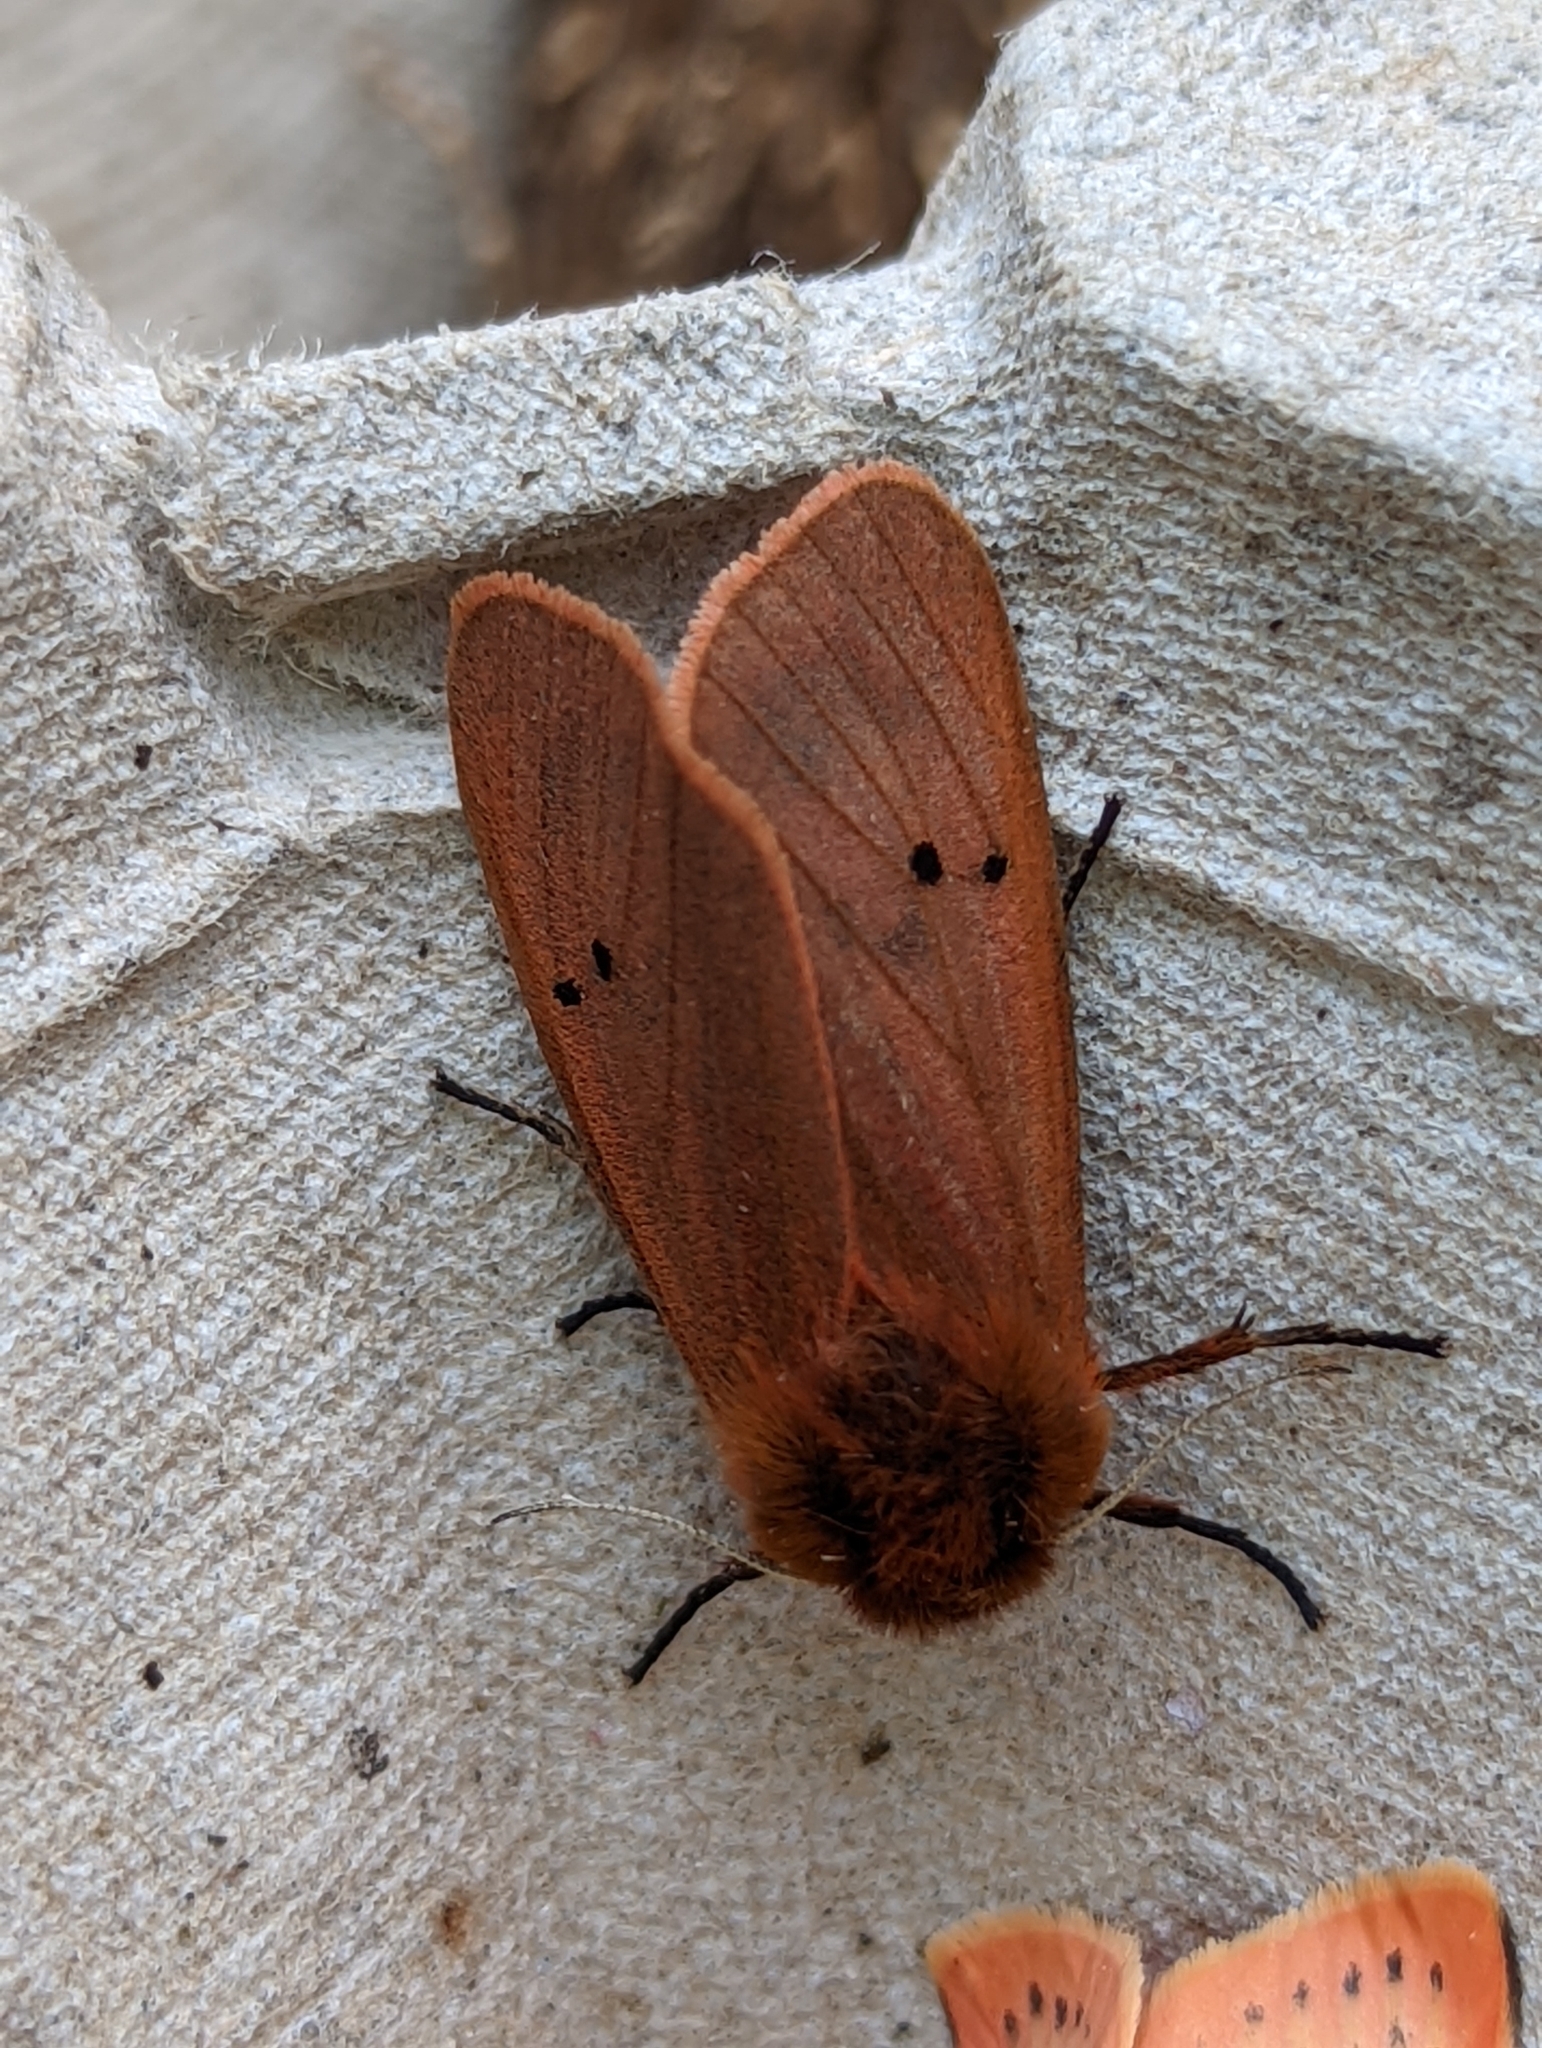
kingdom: Animalia
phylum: Arthropoda
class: Insecta
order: Lepidoptera
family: Erebidae
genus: Phragmatobia
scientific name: Phragmatobia fuliginosa
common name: Ruby tiger
